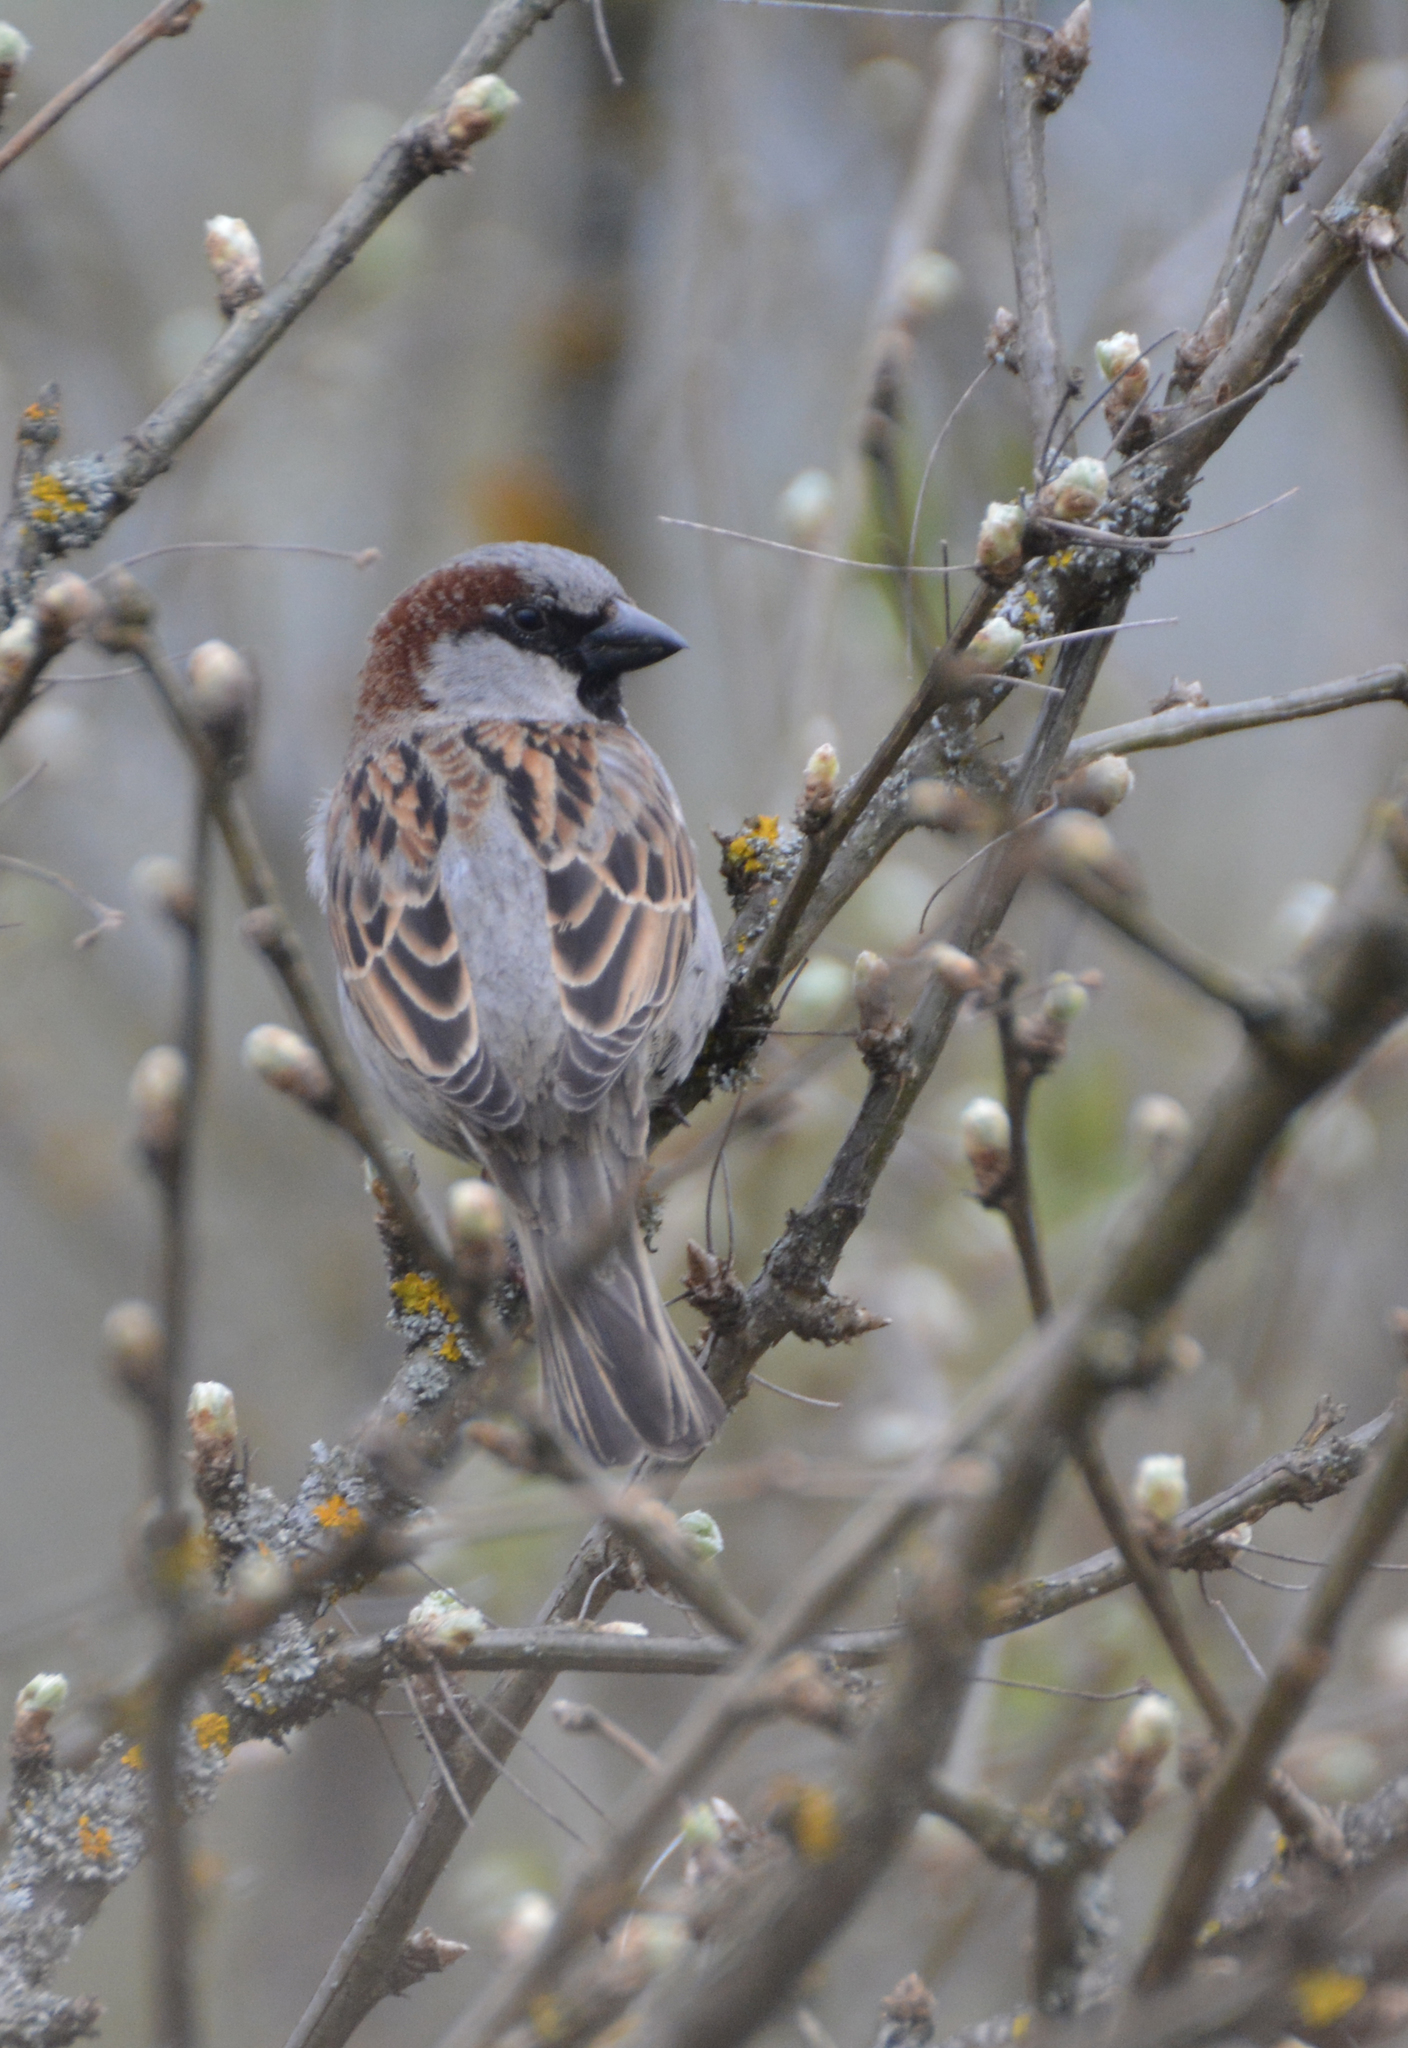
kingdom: Animalia
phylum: Chordata
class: Aves
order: Passeriformes
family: Passeridae
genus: Passer
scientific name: Passer domesticus
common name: House sparrow
